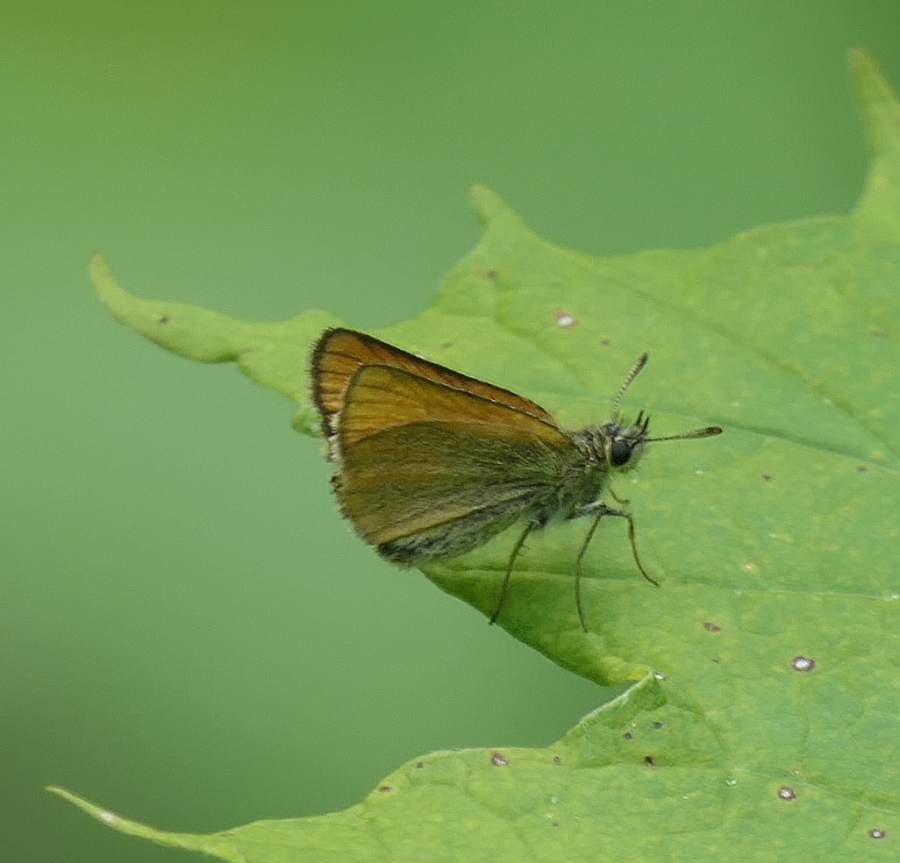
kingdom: Animalia
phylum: Arthropoda
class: Insecta
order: Lepidoptera
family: Hesperiidae
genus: Thymelicus
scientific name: Thymelicus lineola
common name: Essex skipper
